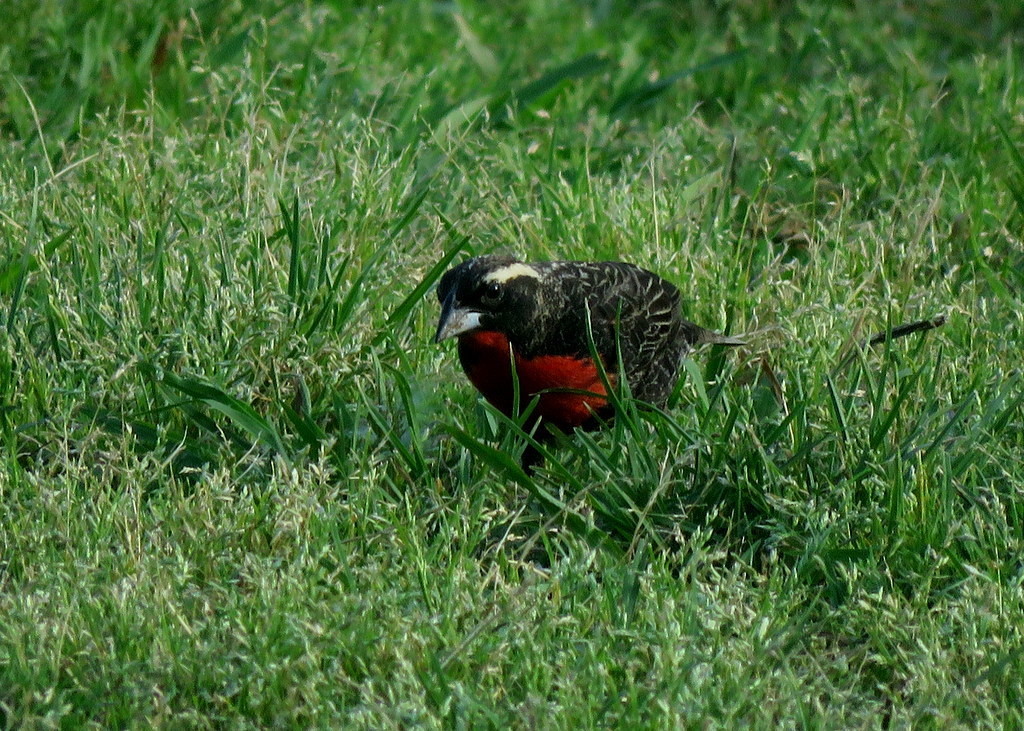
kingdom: Animalia
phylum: Chordata
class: Aves
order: Passeriformes
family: Icteridae
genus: Sturnella
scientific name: Sturnella superciliaris
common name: White-browed blackbird
